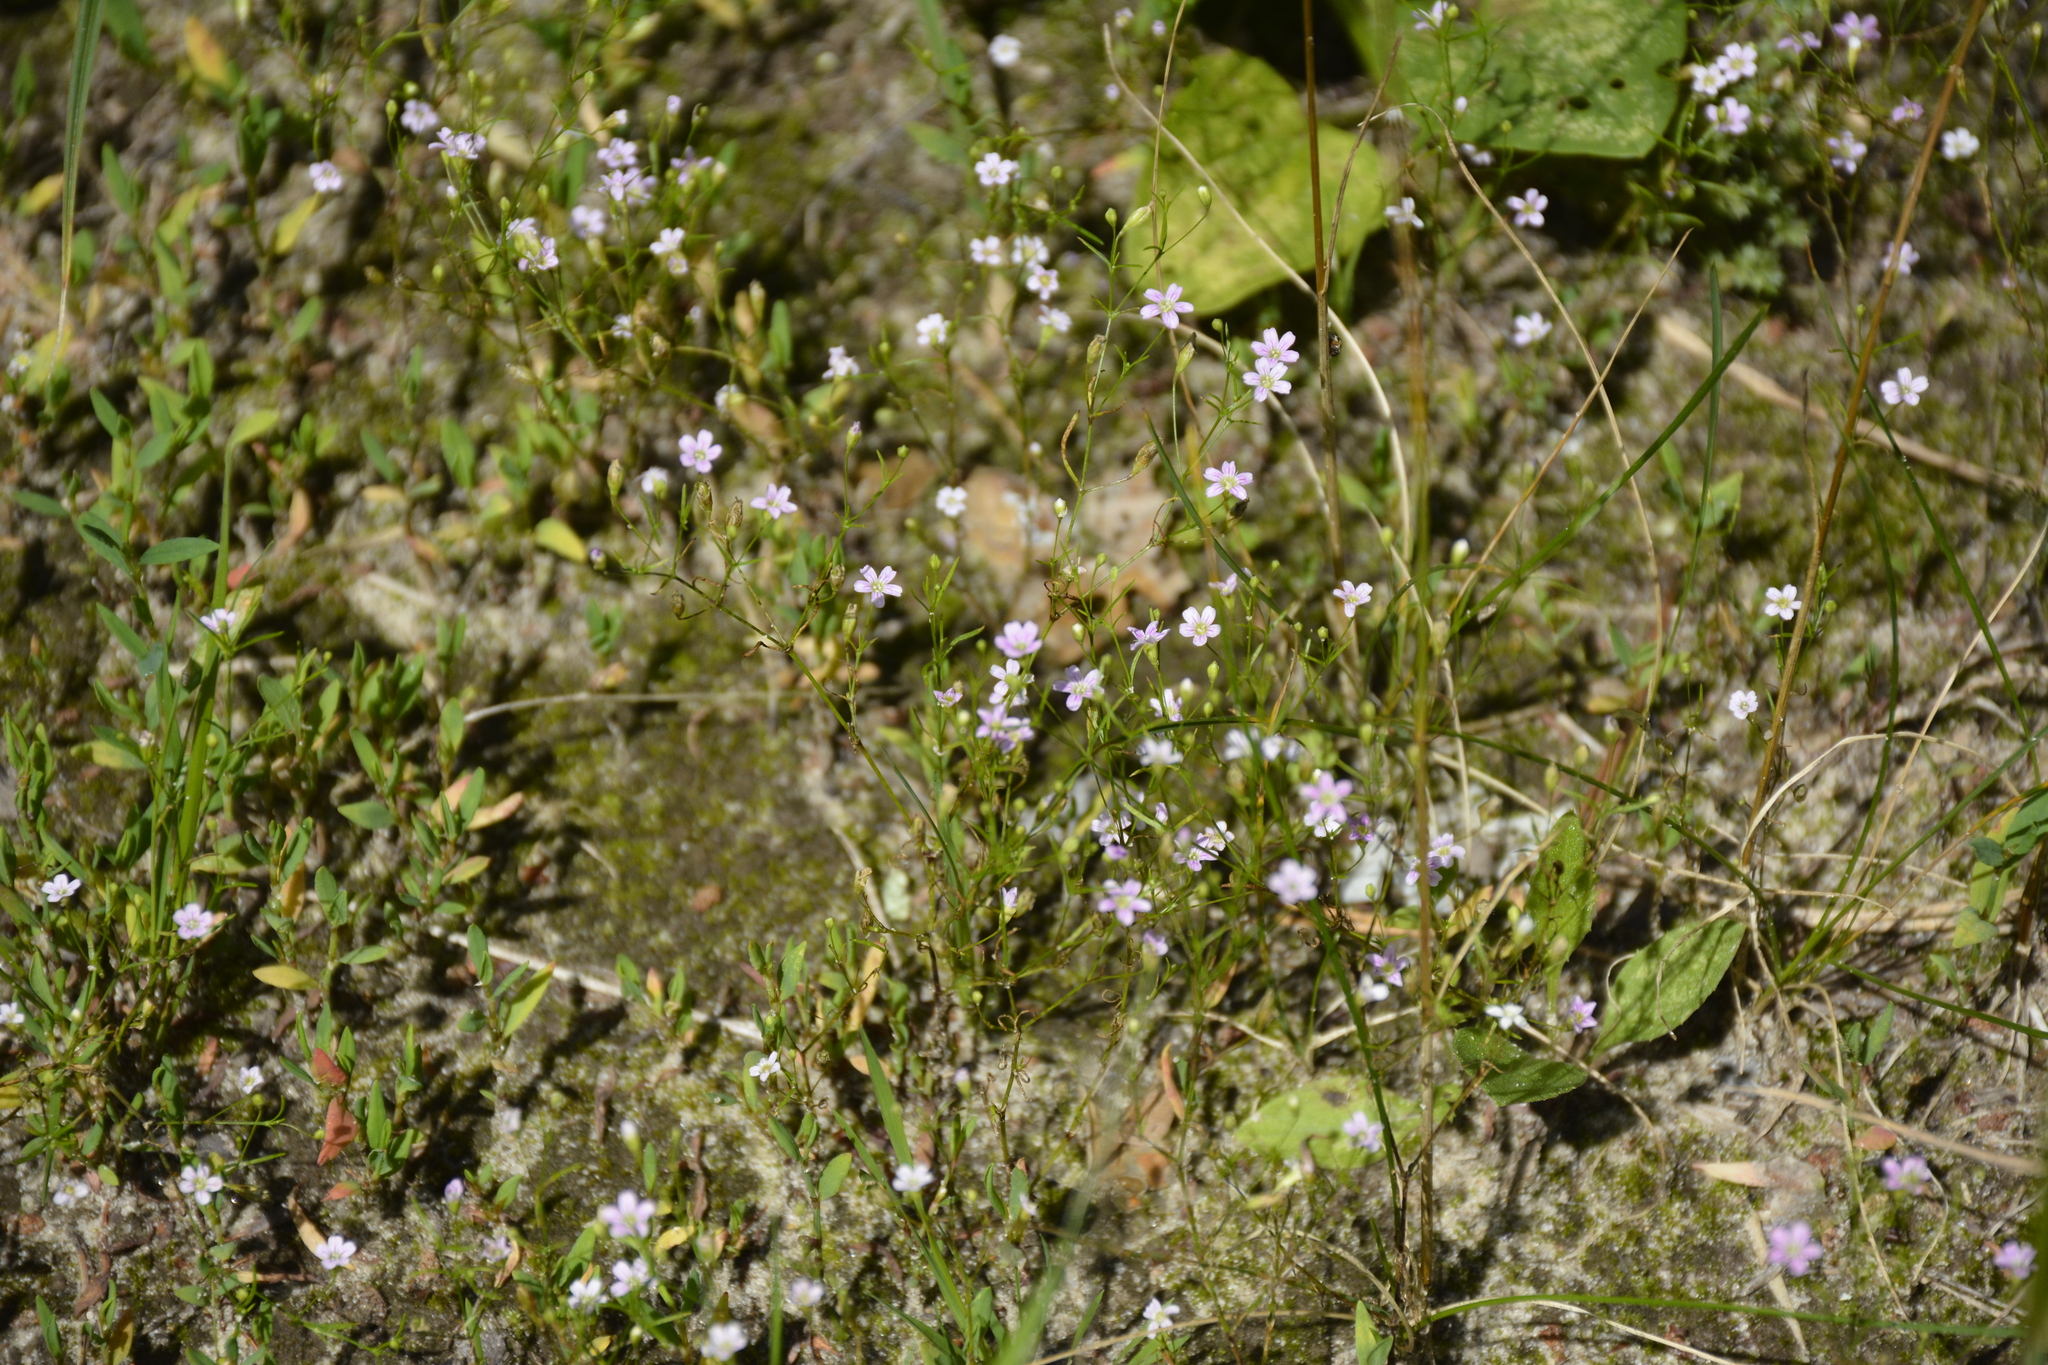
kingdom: Plantae
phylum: Tracheophyta
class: Magnoliopsida
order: Caryophyllales
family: Caryophyllaceae
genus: Psammophiliella
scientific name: Psammophiliella muralis
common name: Cushion baby's-breath
